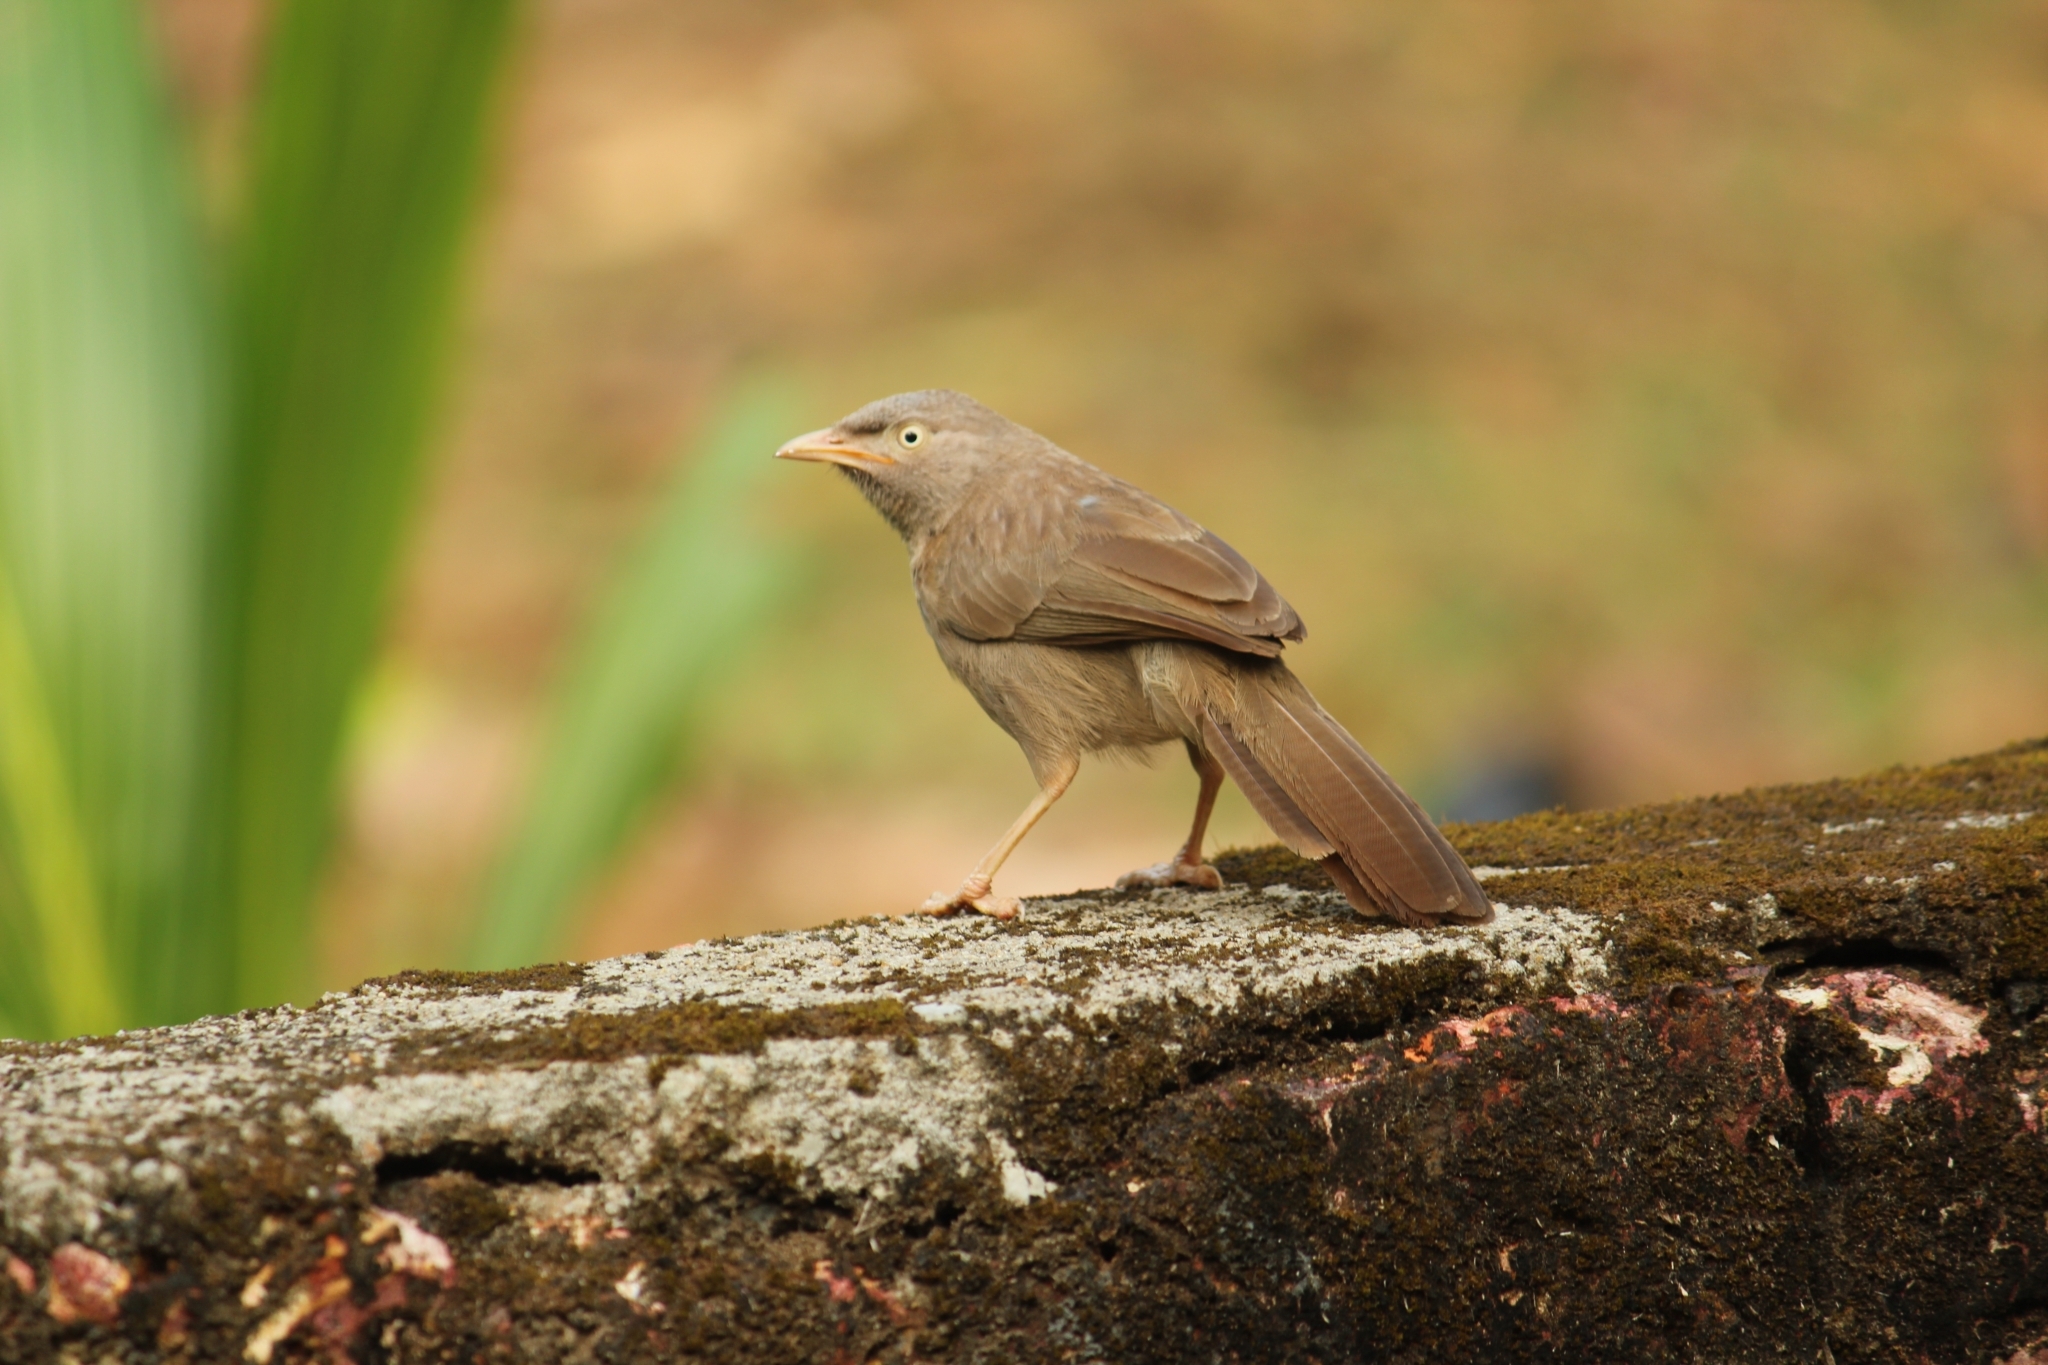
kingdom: Animalia
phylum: Chordata
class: Aves
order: Passeriformes
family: Leiothrichidae
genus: Turdoides
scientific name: Turdoides striata
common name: Jungle babbler
